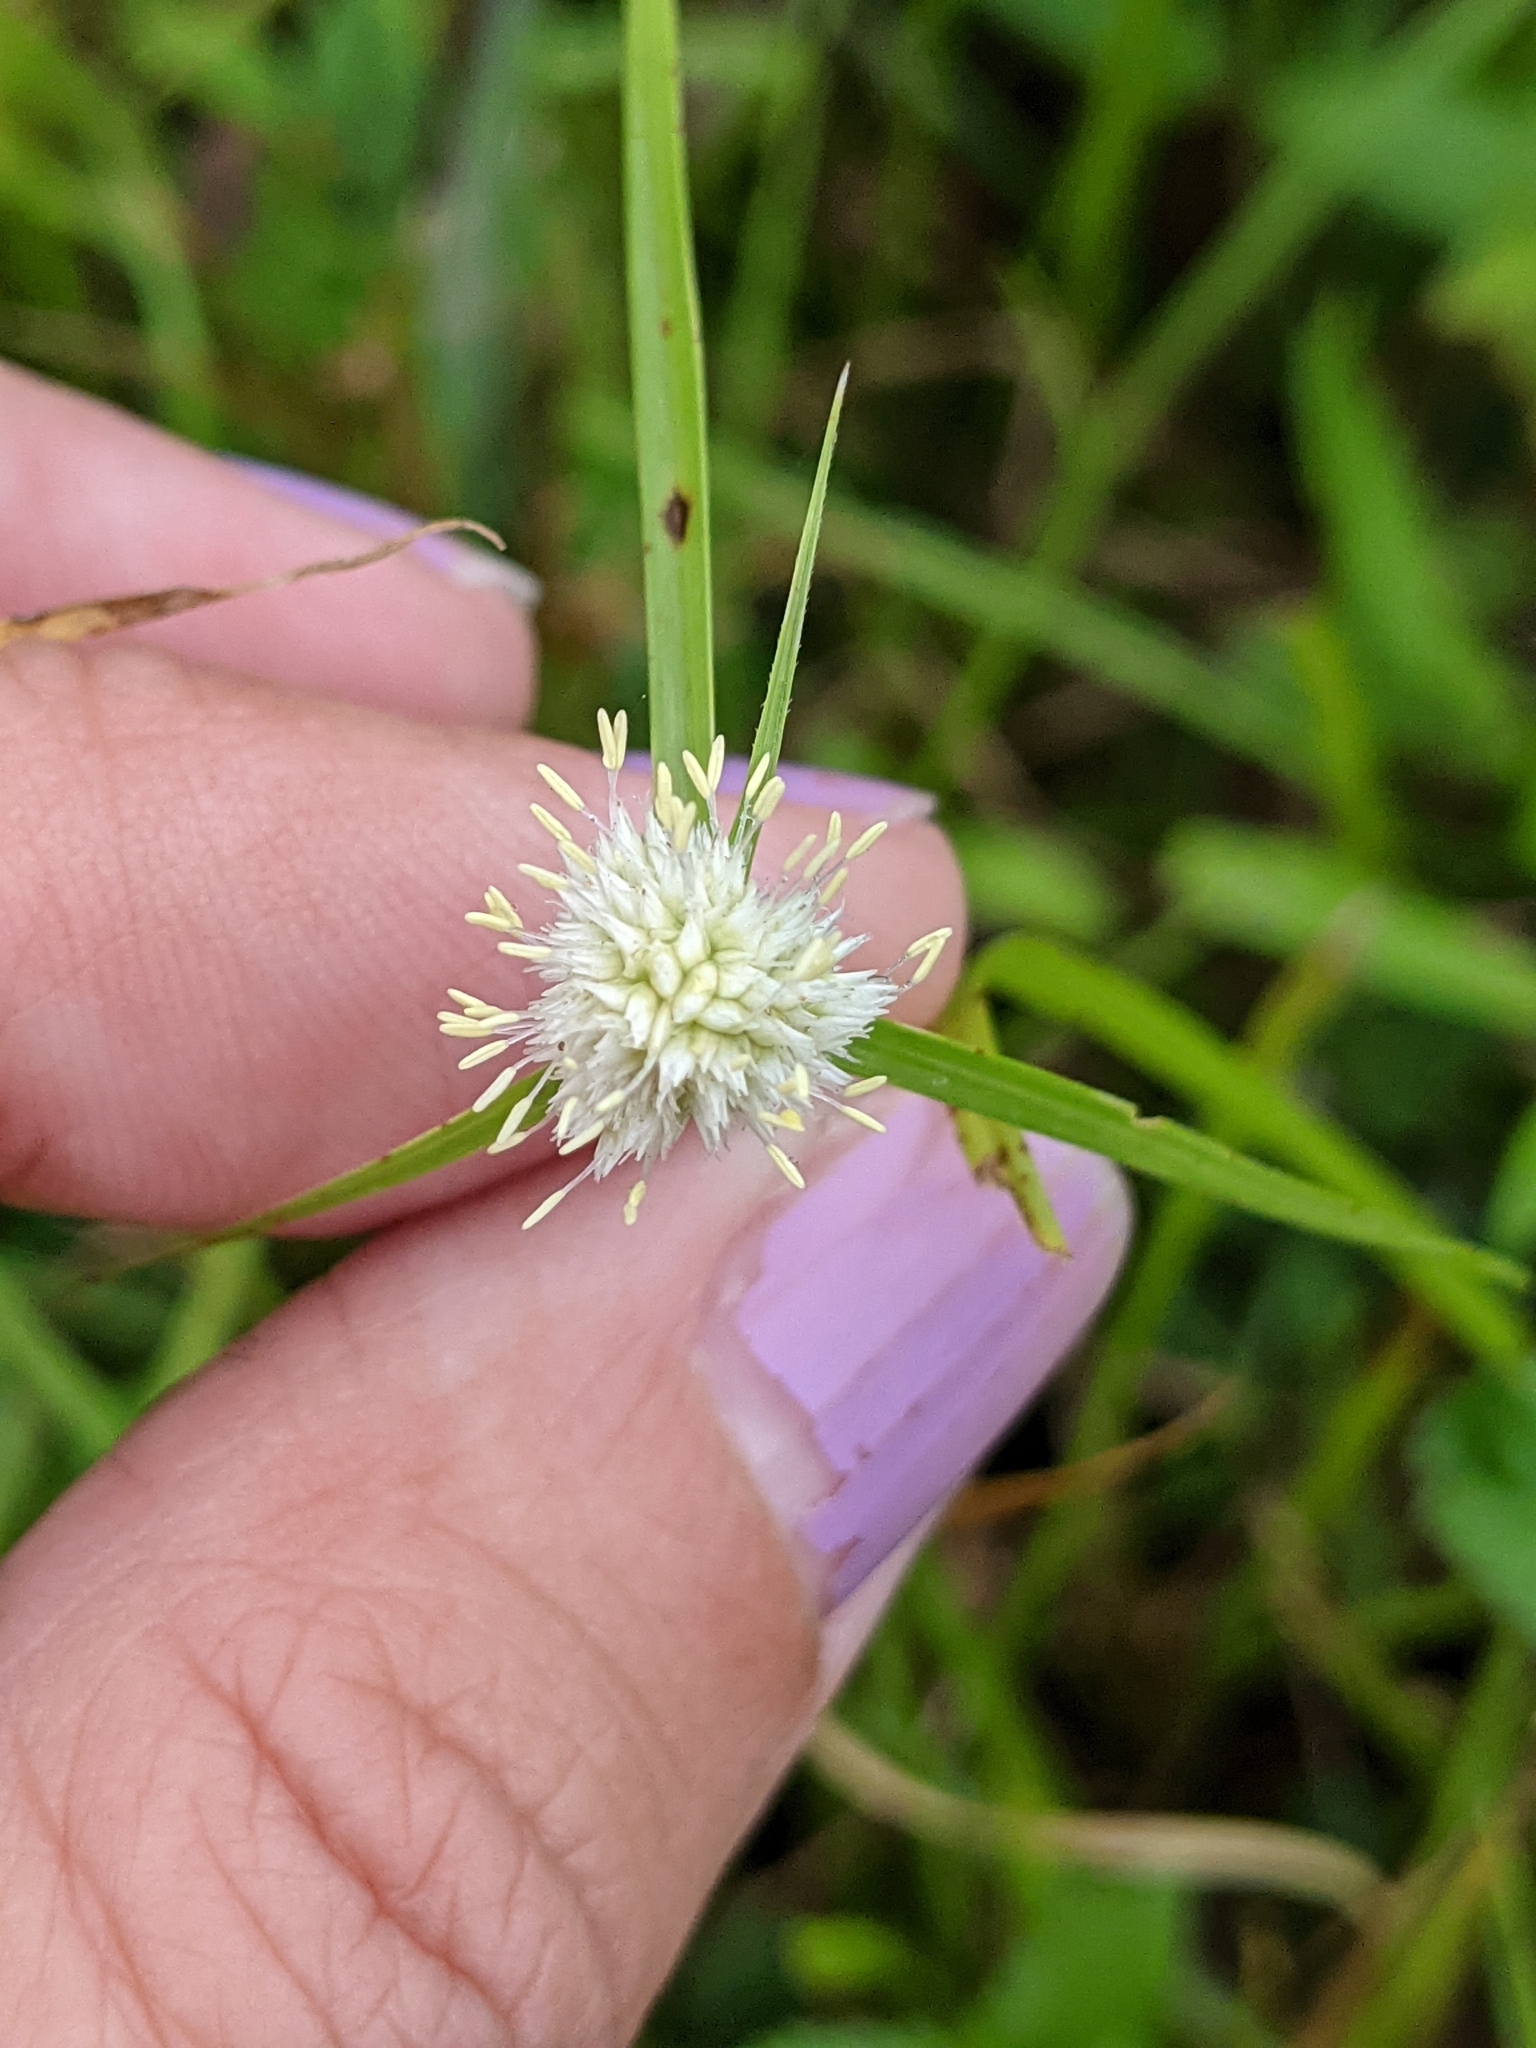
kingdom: Plantae
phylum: Tracheophyta
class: Liliopsida
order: Poales
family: Cyperaceae
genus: Cyperus
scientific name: Cyperus richardii
